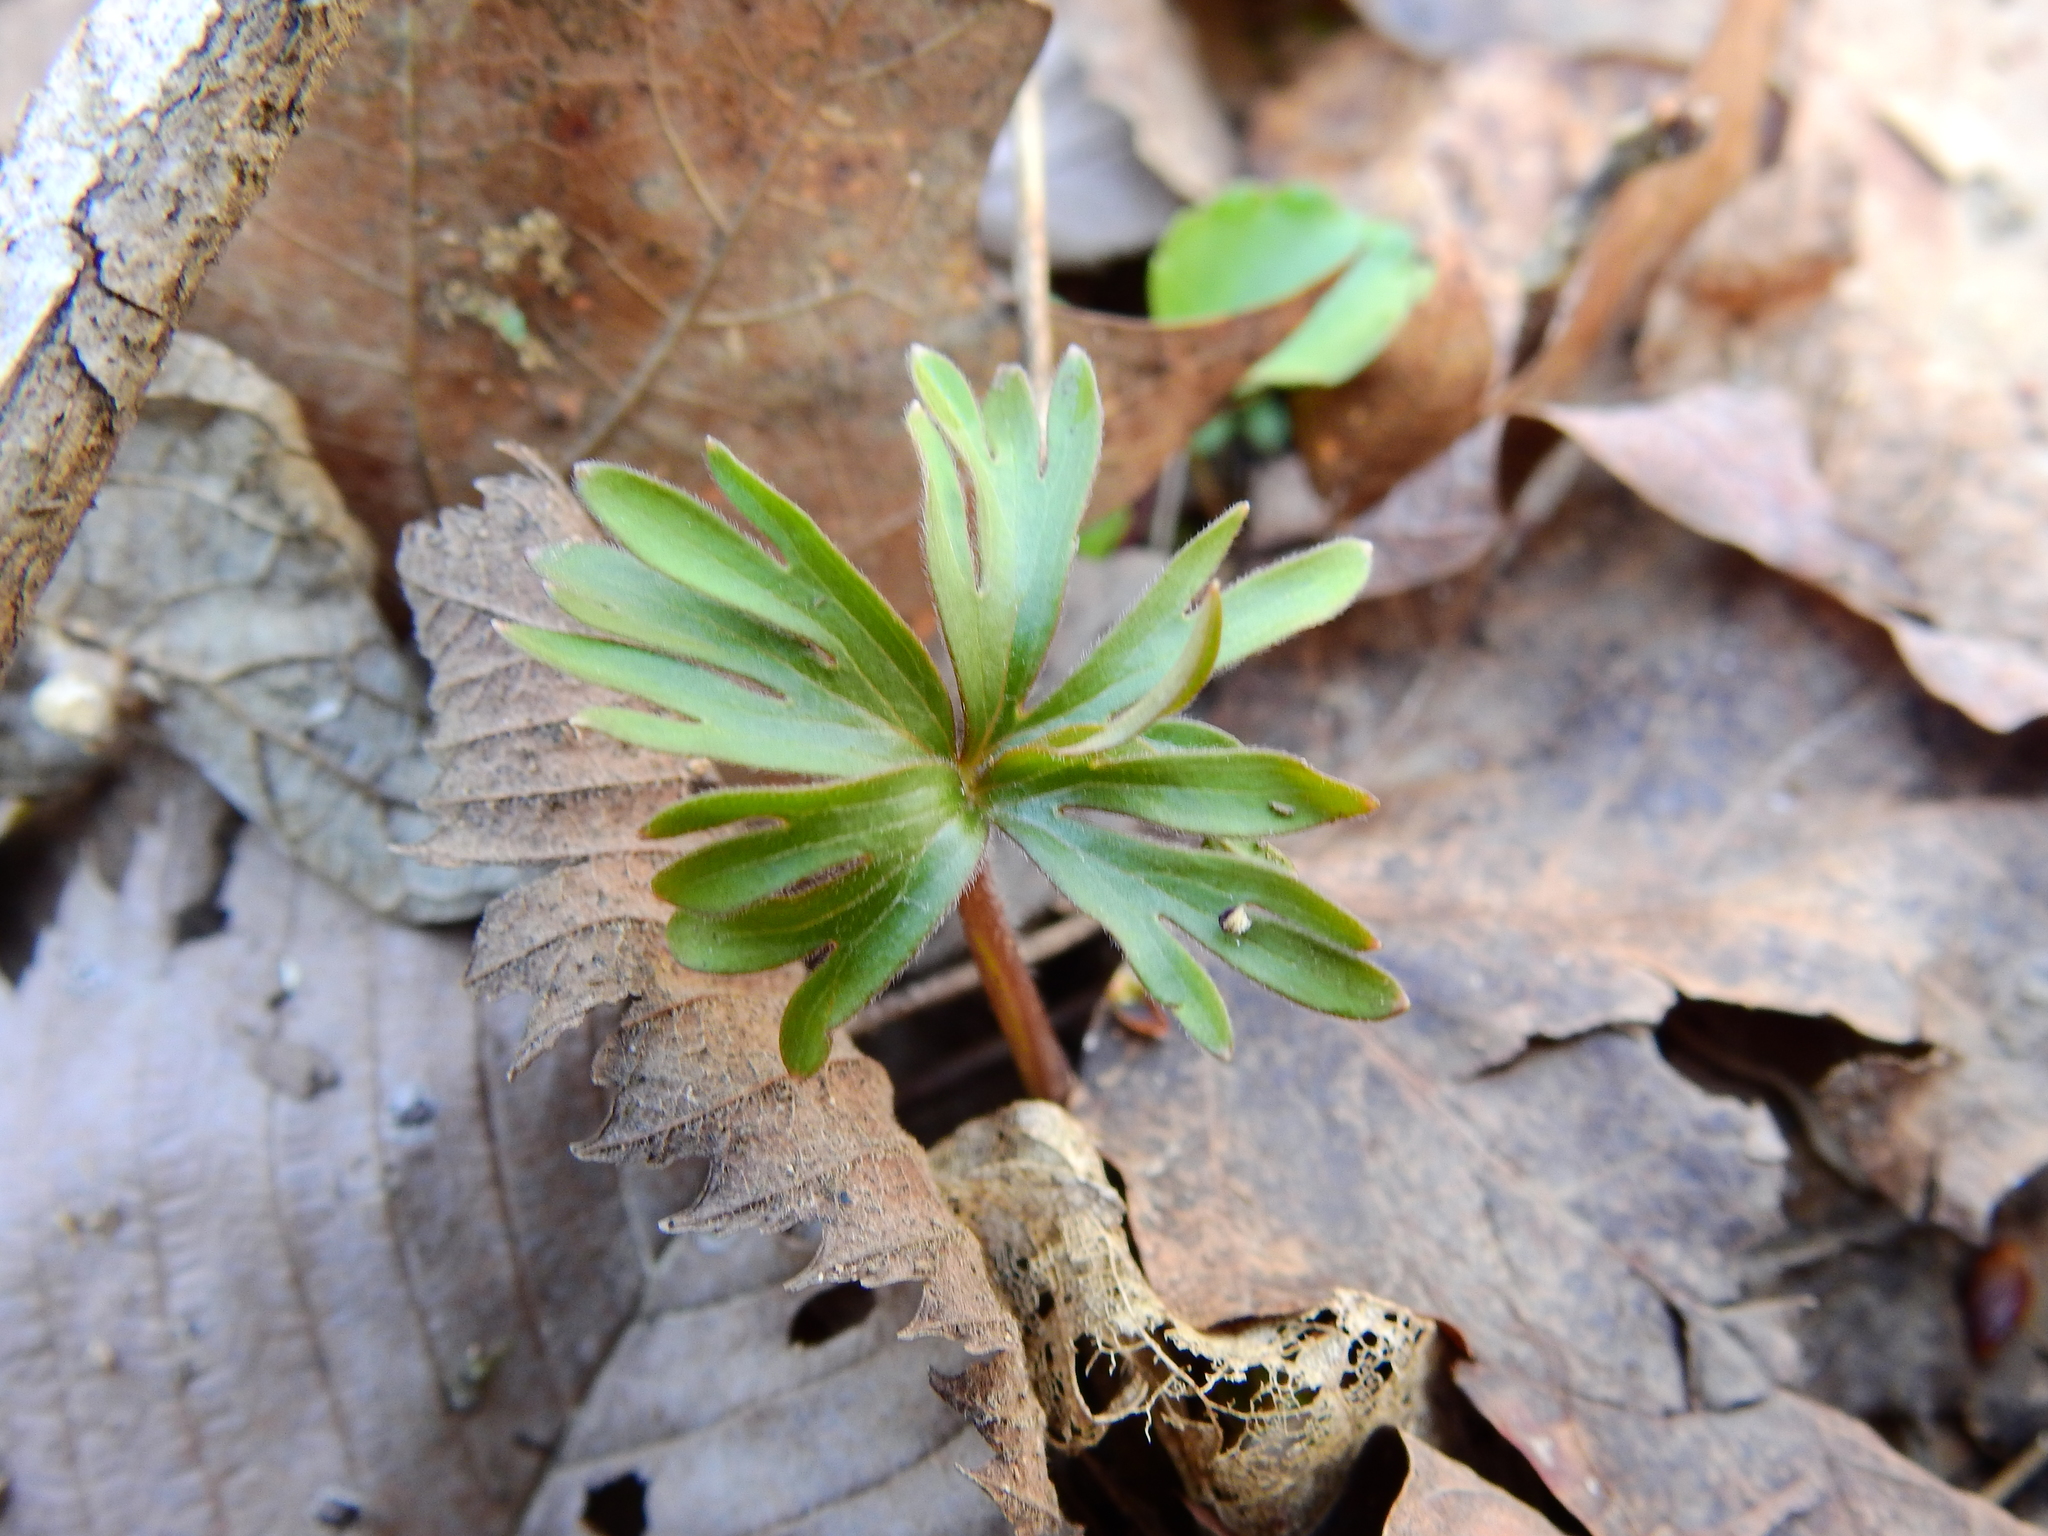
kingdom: Plantae
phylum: Tracheophyta
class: Magnoliopsida
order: Ranunculales
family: Ranunculaceae
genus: Eranthis
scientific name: Eranthis hyemalis
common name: Winter aconite
